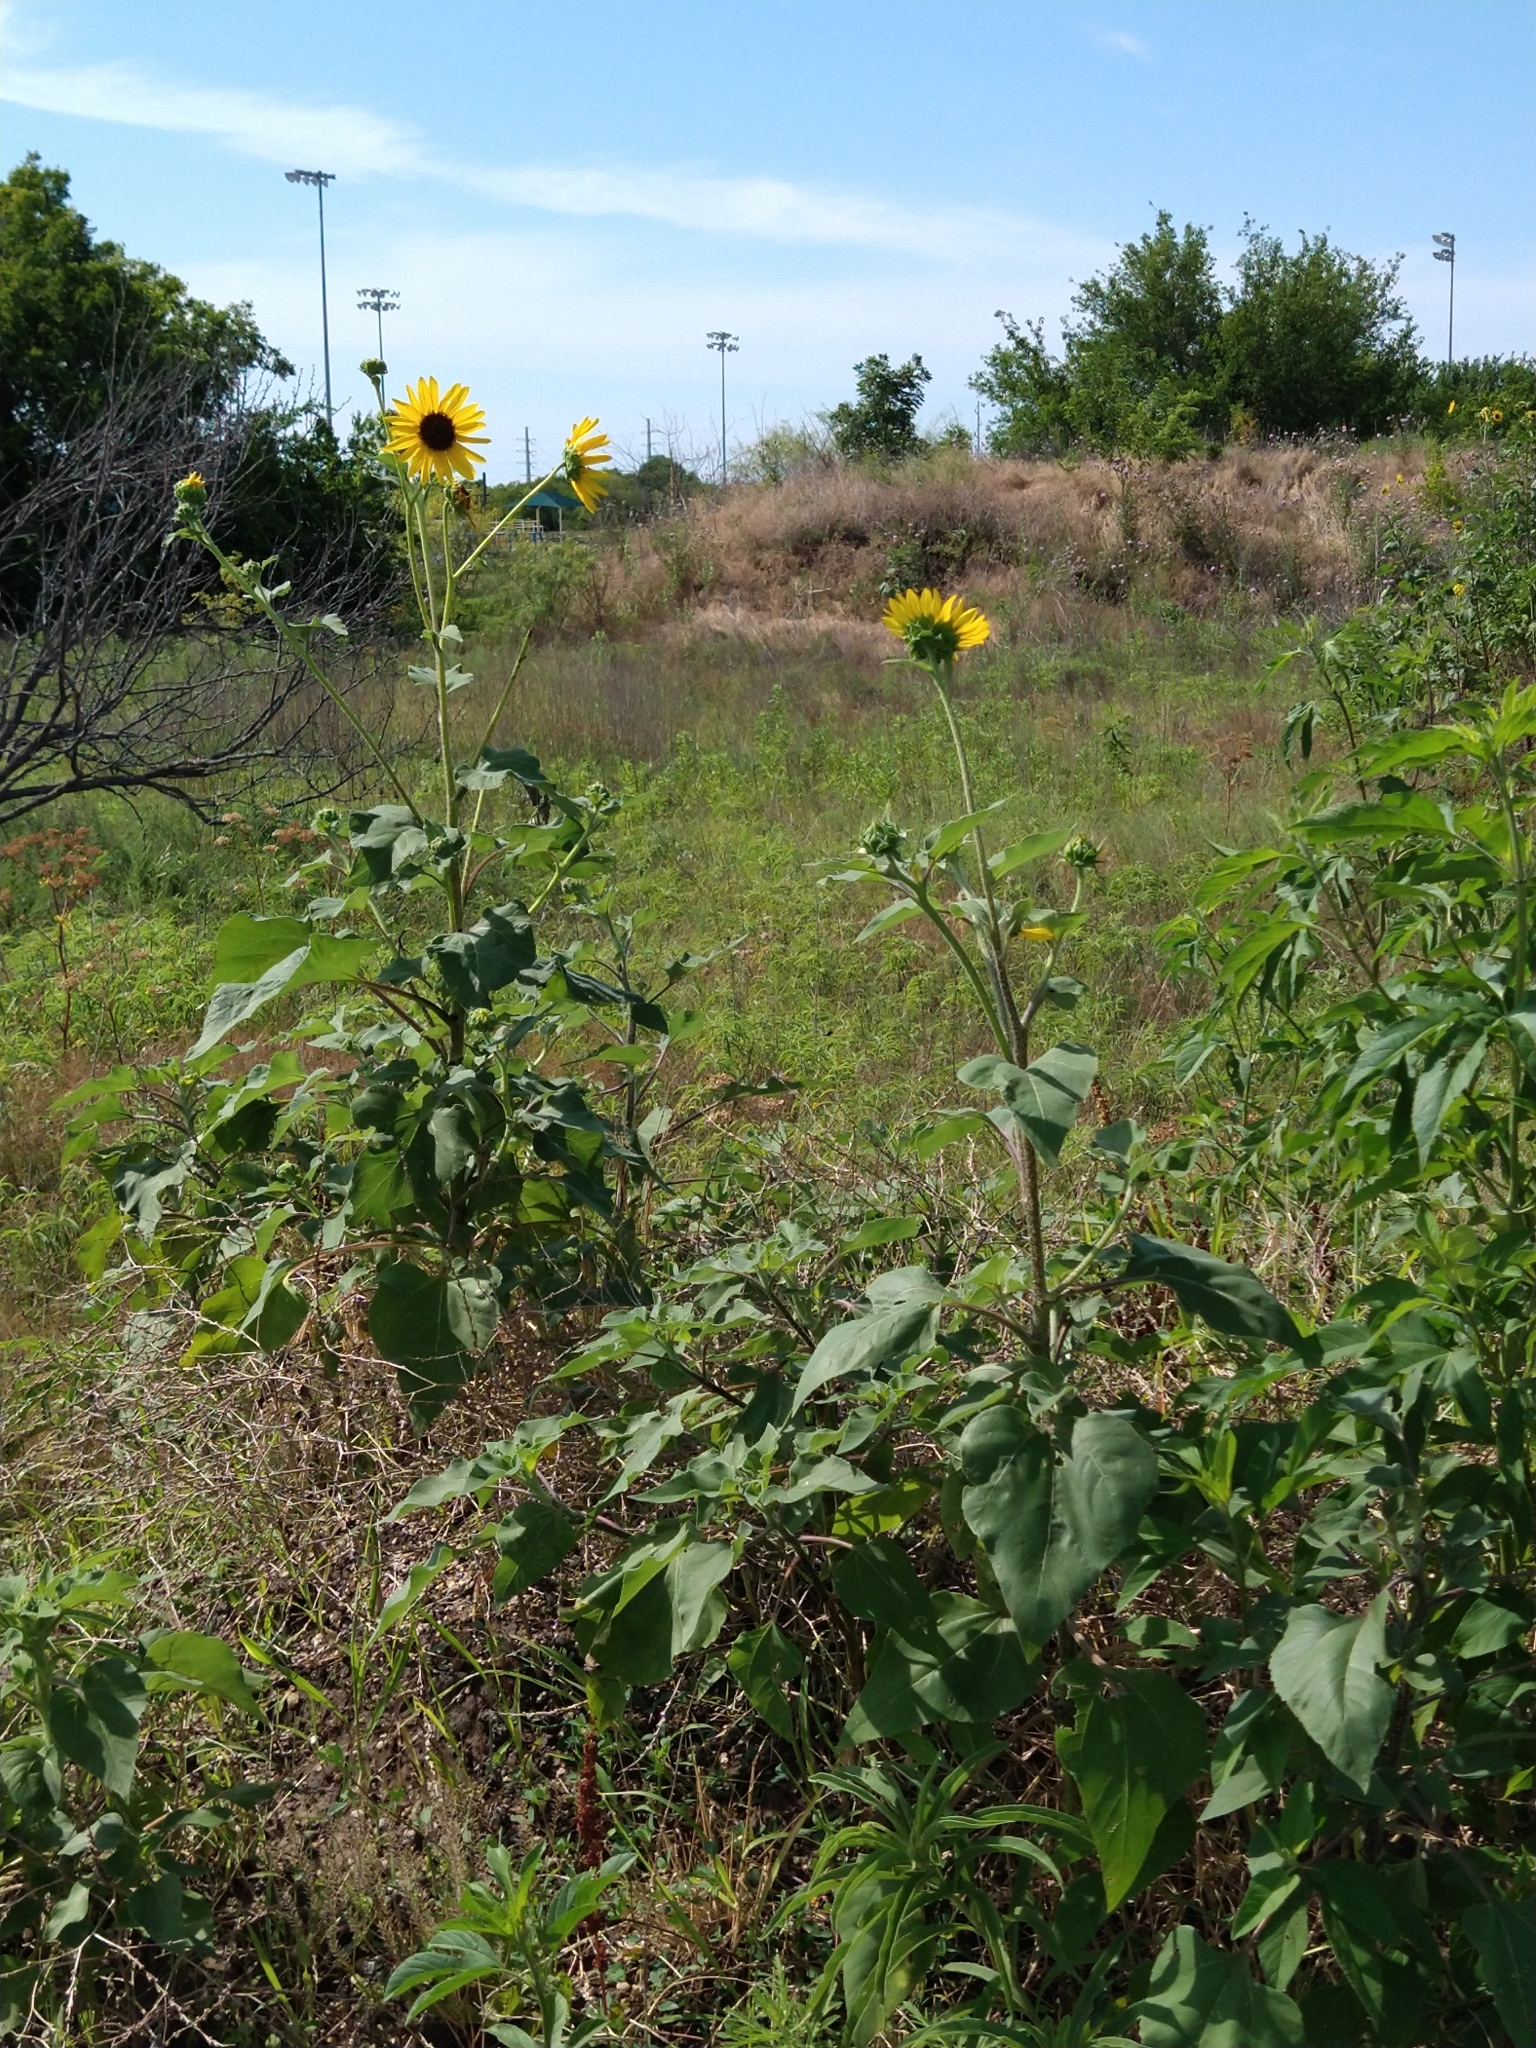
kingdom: Plantae
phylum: Tracheophyta
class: Magnoliopsida
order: Asterales
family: Asteraceae
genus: Helianthus
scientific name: Helianthus annuus
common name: Sunflower
